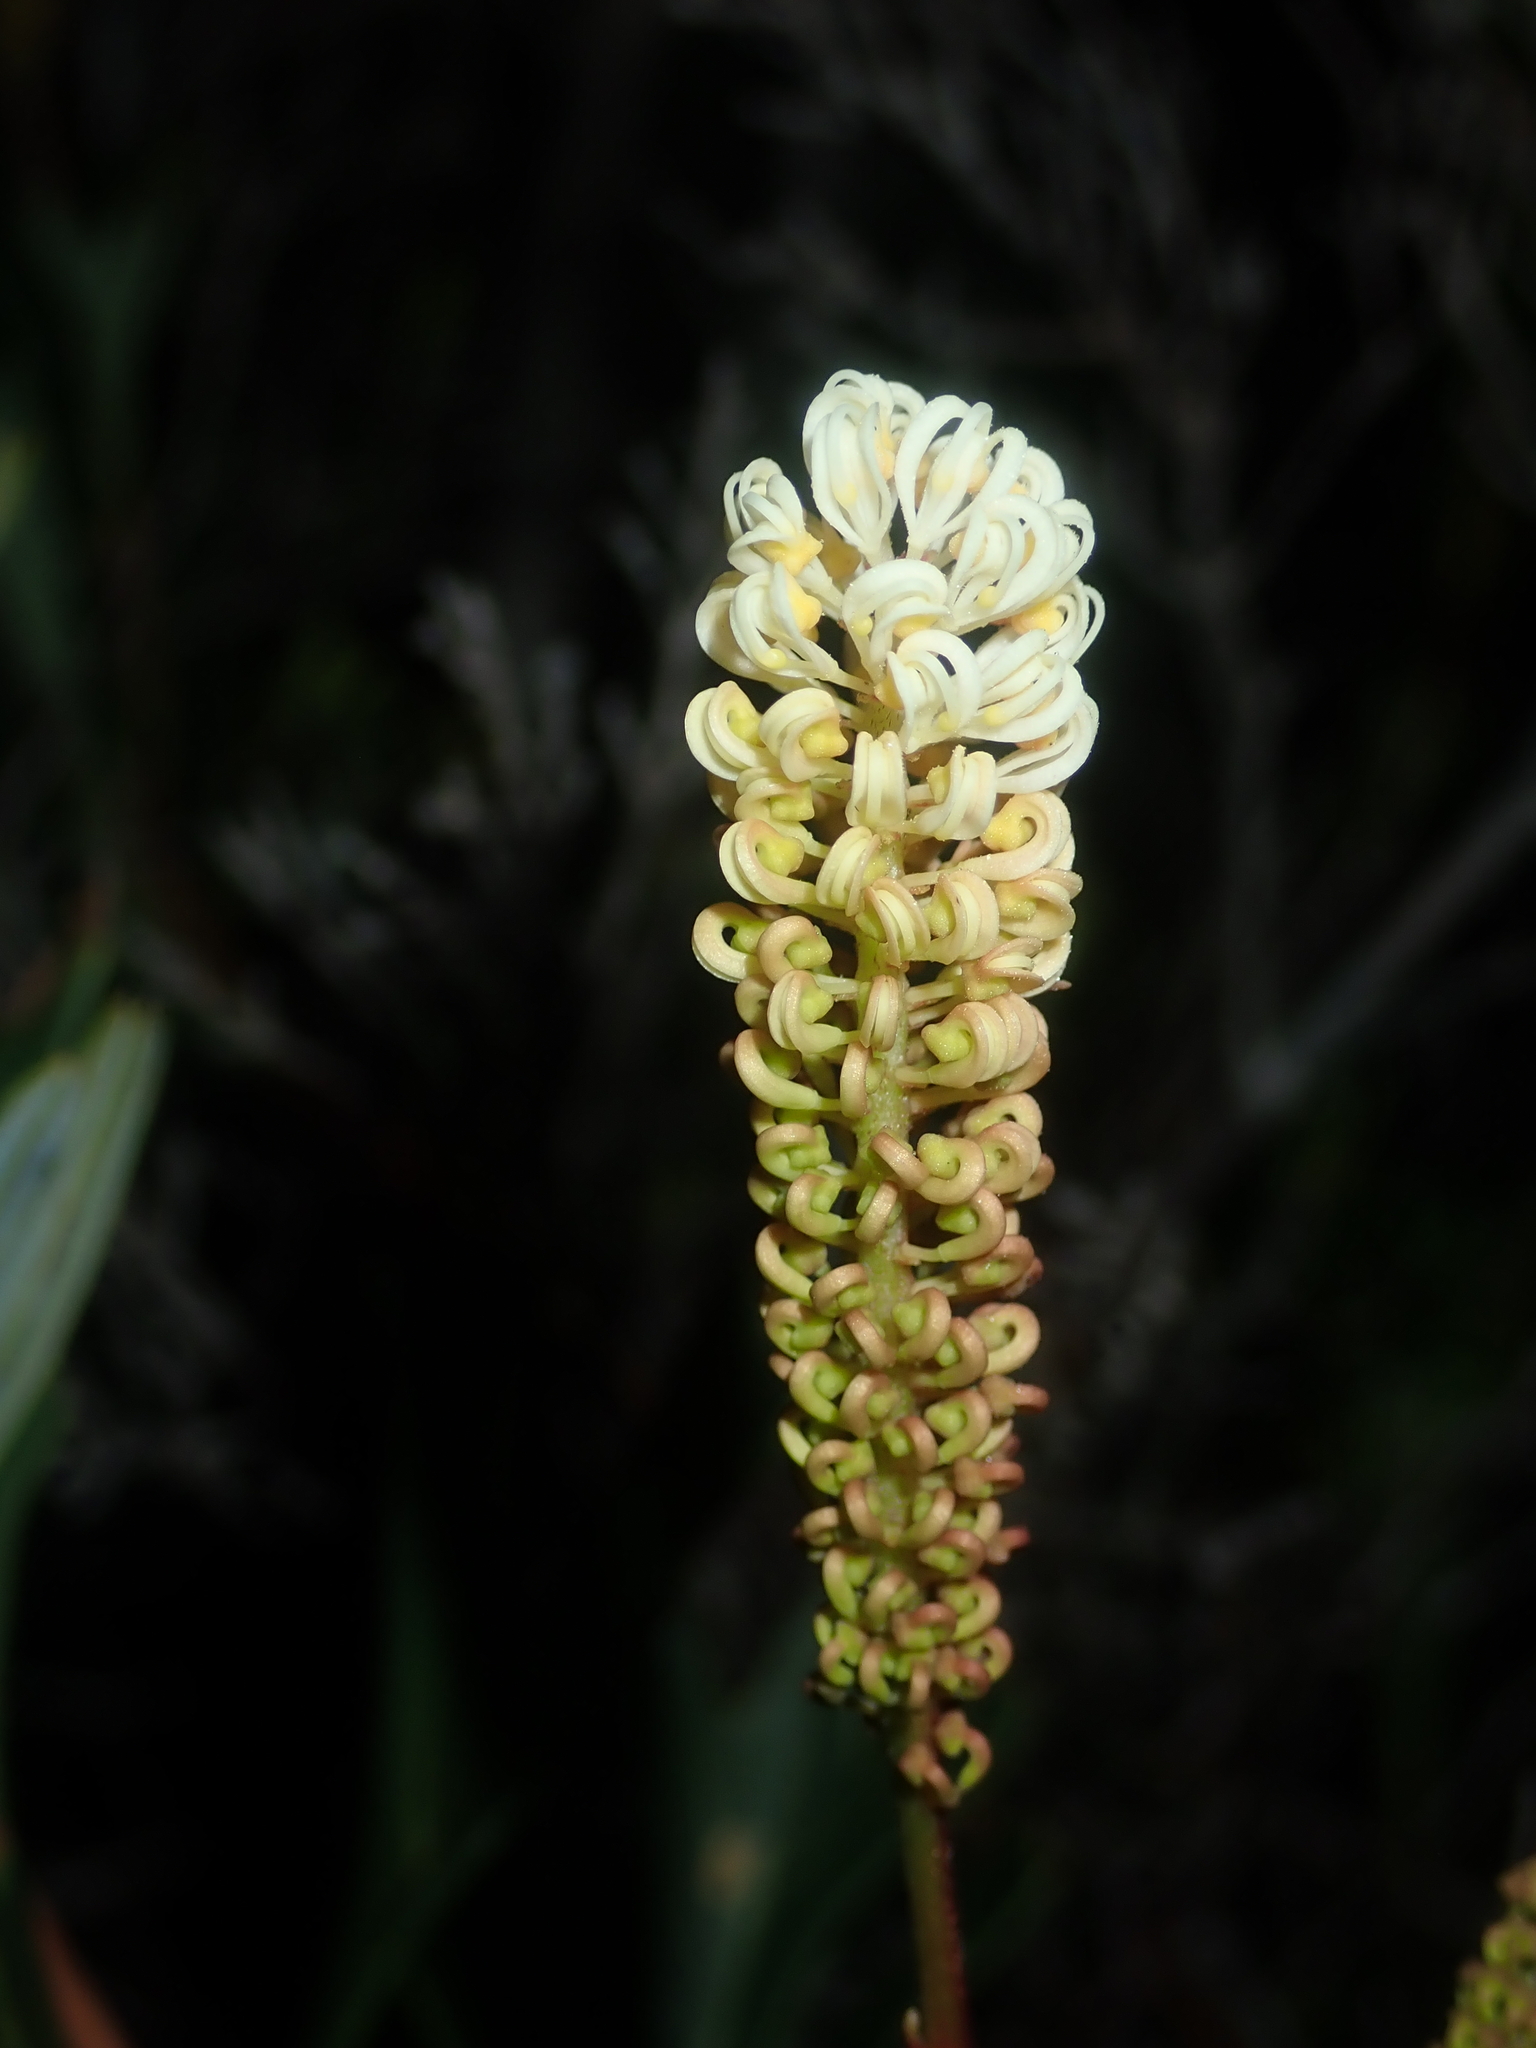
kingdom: Plantae
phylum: Tracheophyta
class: Magnoliopsida
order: Proteales
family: Proteaceae
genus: Grevillea
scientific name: Grevillea synaphea
